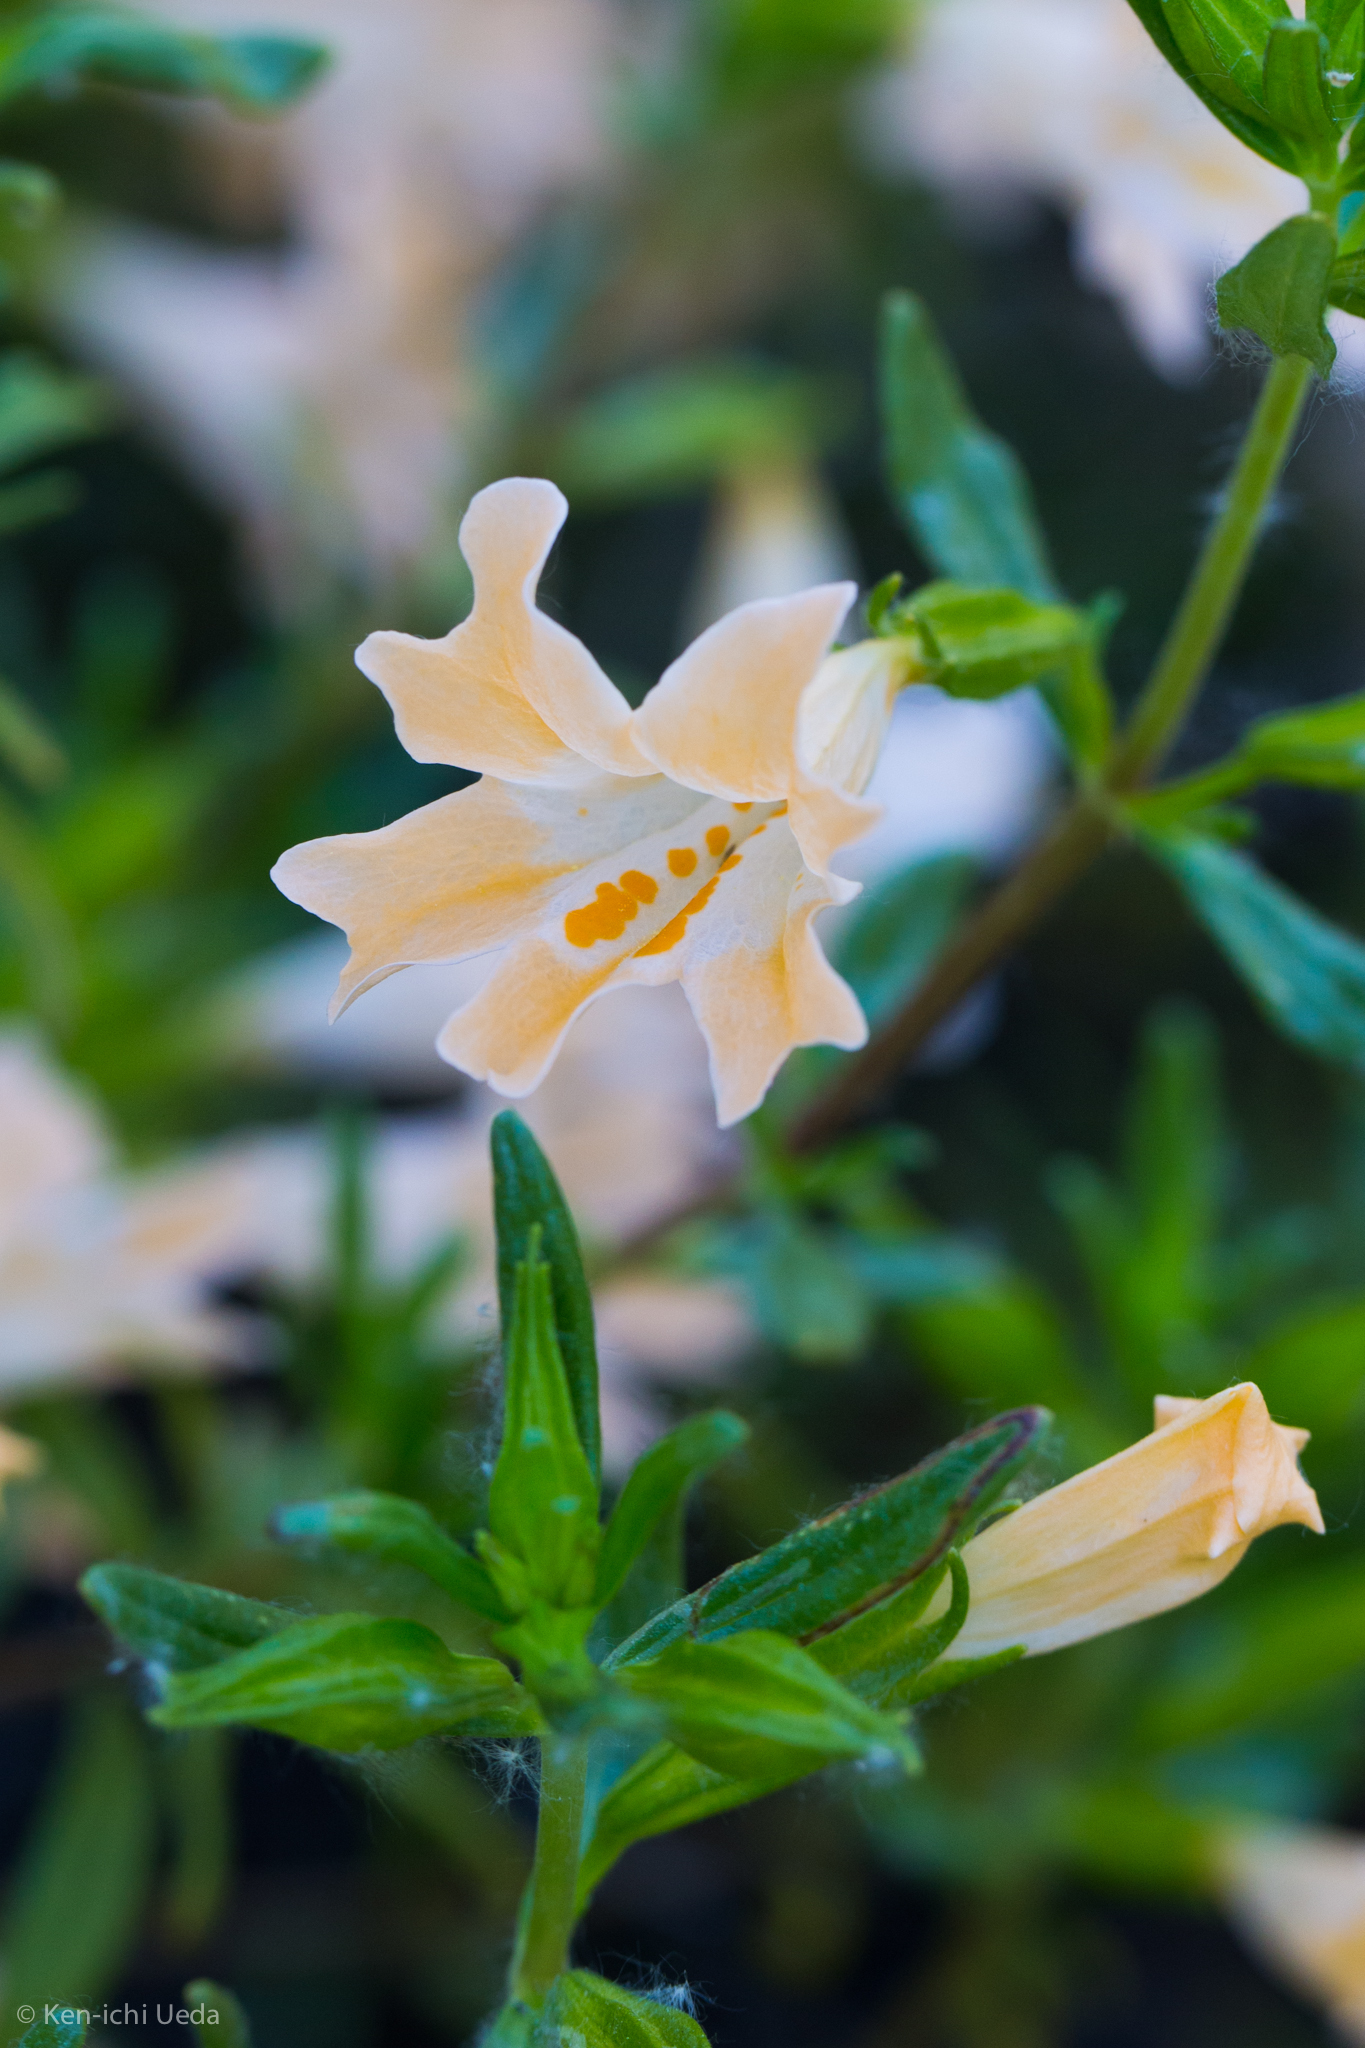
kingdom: Plantae
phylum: Tracheophyta
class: Magnoliopsida
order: Lamiales
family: Phrymaceae
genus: Diplacus
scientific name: Diplacus linearis
